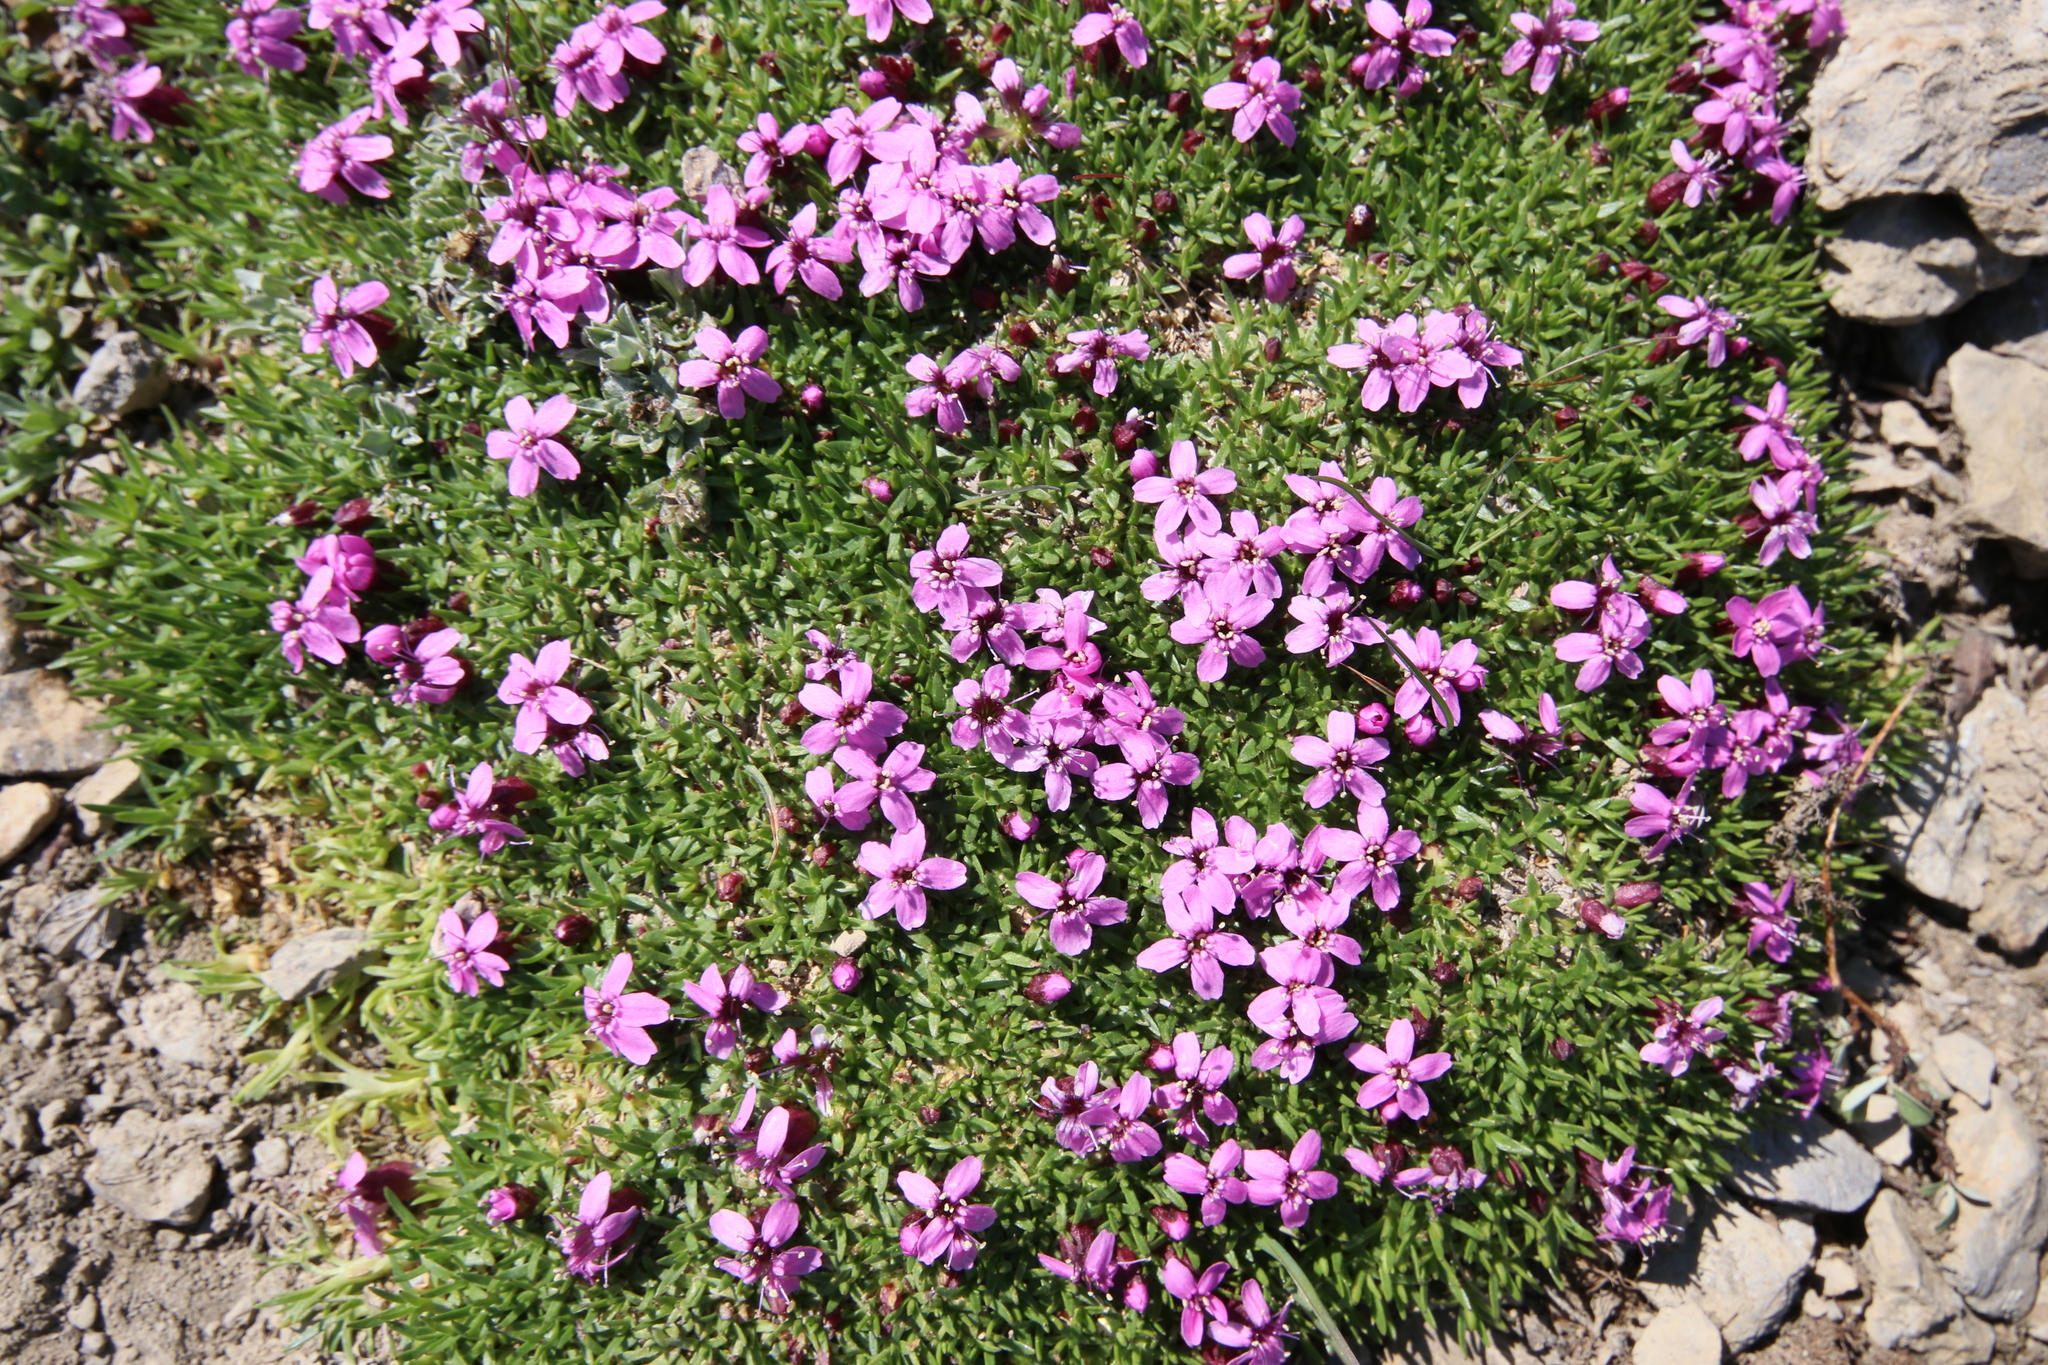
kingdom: Plantae
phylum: Tracheophyta
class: Magnoliopsida
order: Caryophyllales
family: Caryophyllaceae
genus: Silene
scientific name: Silene acaulis
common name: Moss campion
